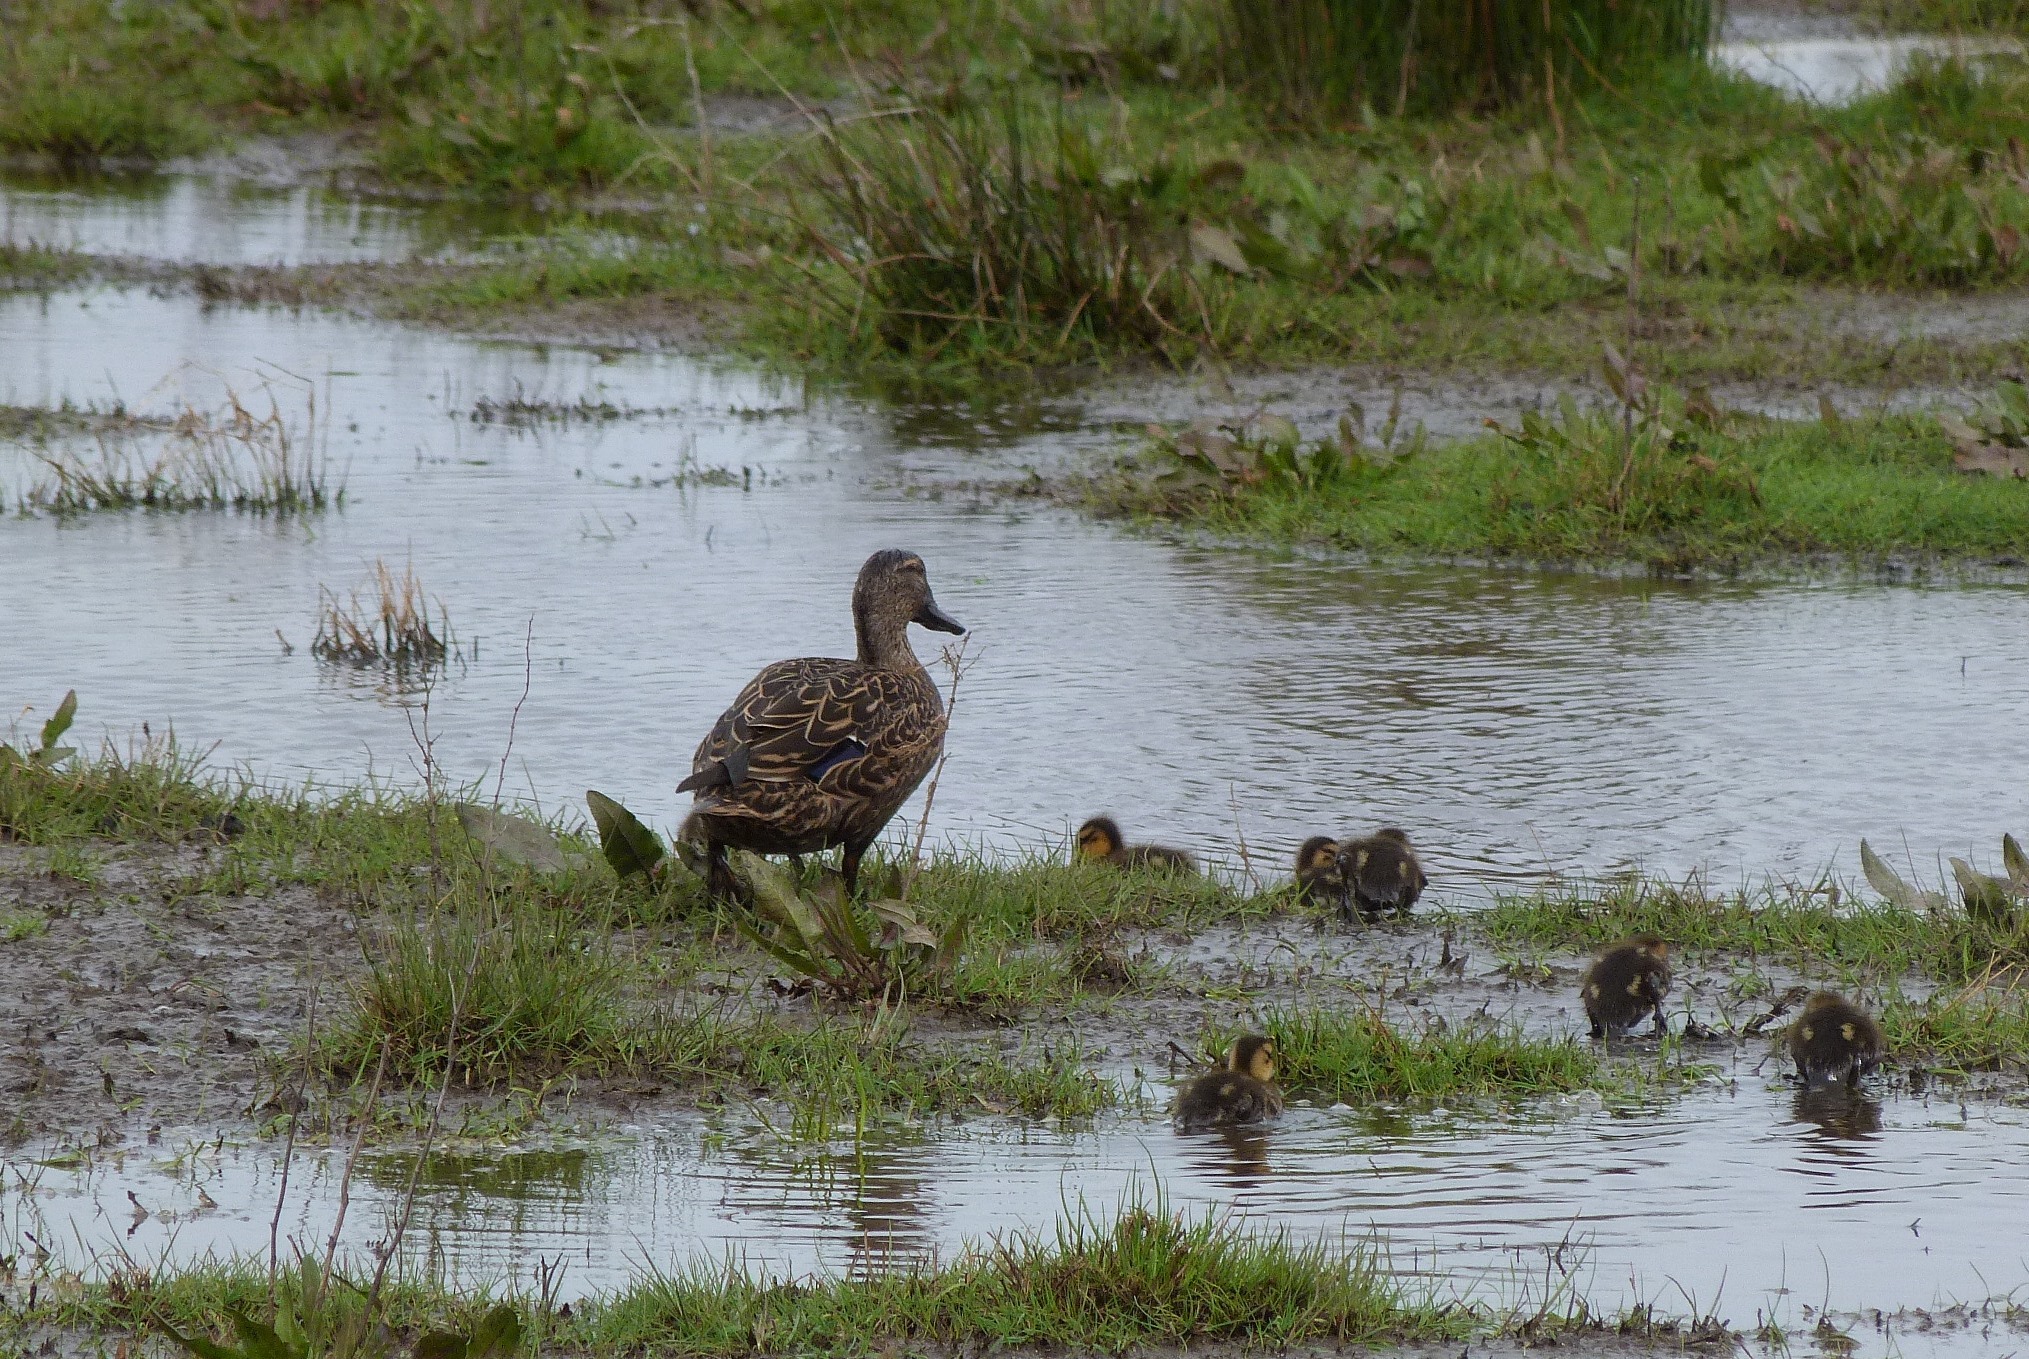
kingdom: Animalia
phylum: Chordata
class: Aves
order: Anseriformes
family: Anatidae
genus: Anas
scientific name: Anas
